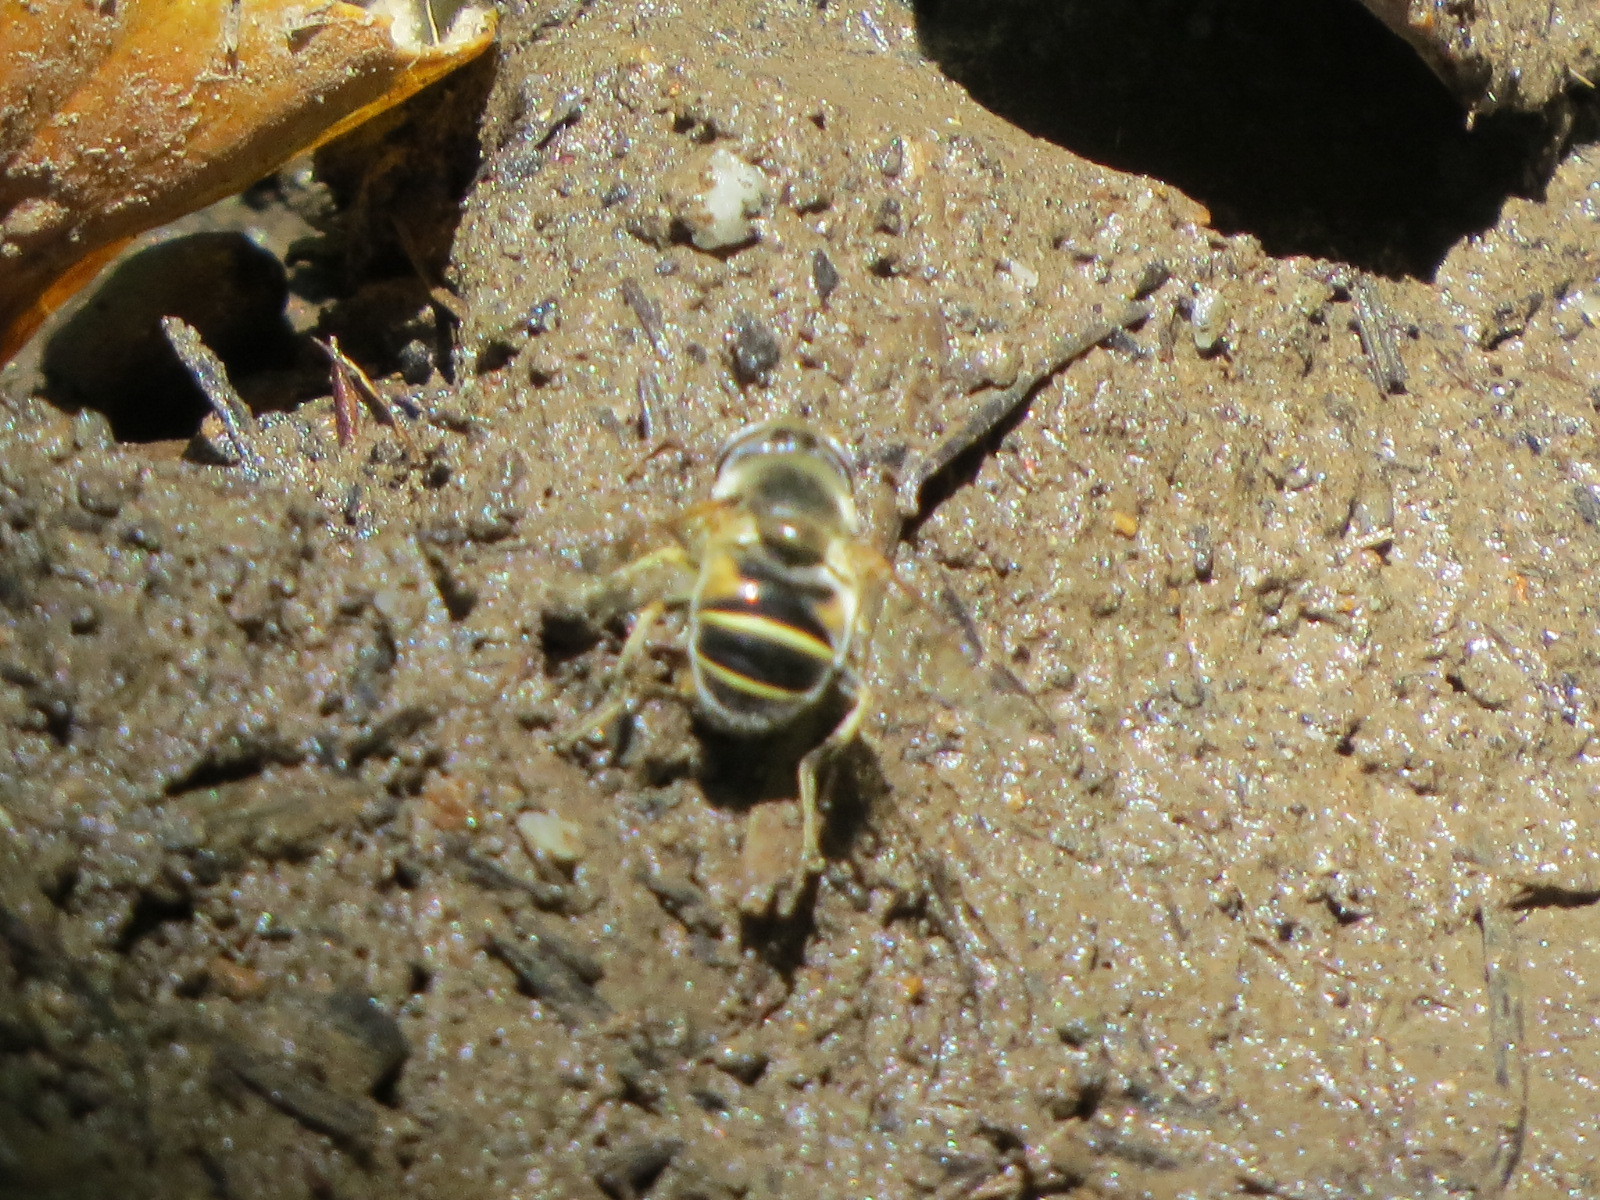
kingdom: Animalia
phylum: Arthropoda
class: Insecta
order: Diptera
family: Syrphidae
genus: Eristalis
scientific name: Eristalis hirta
